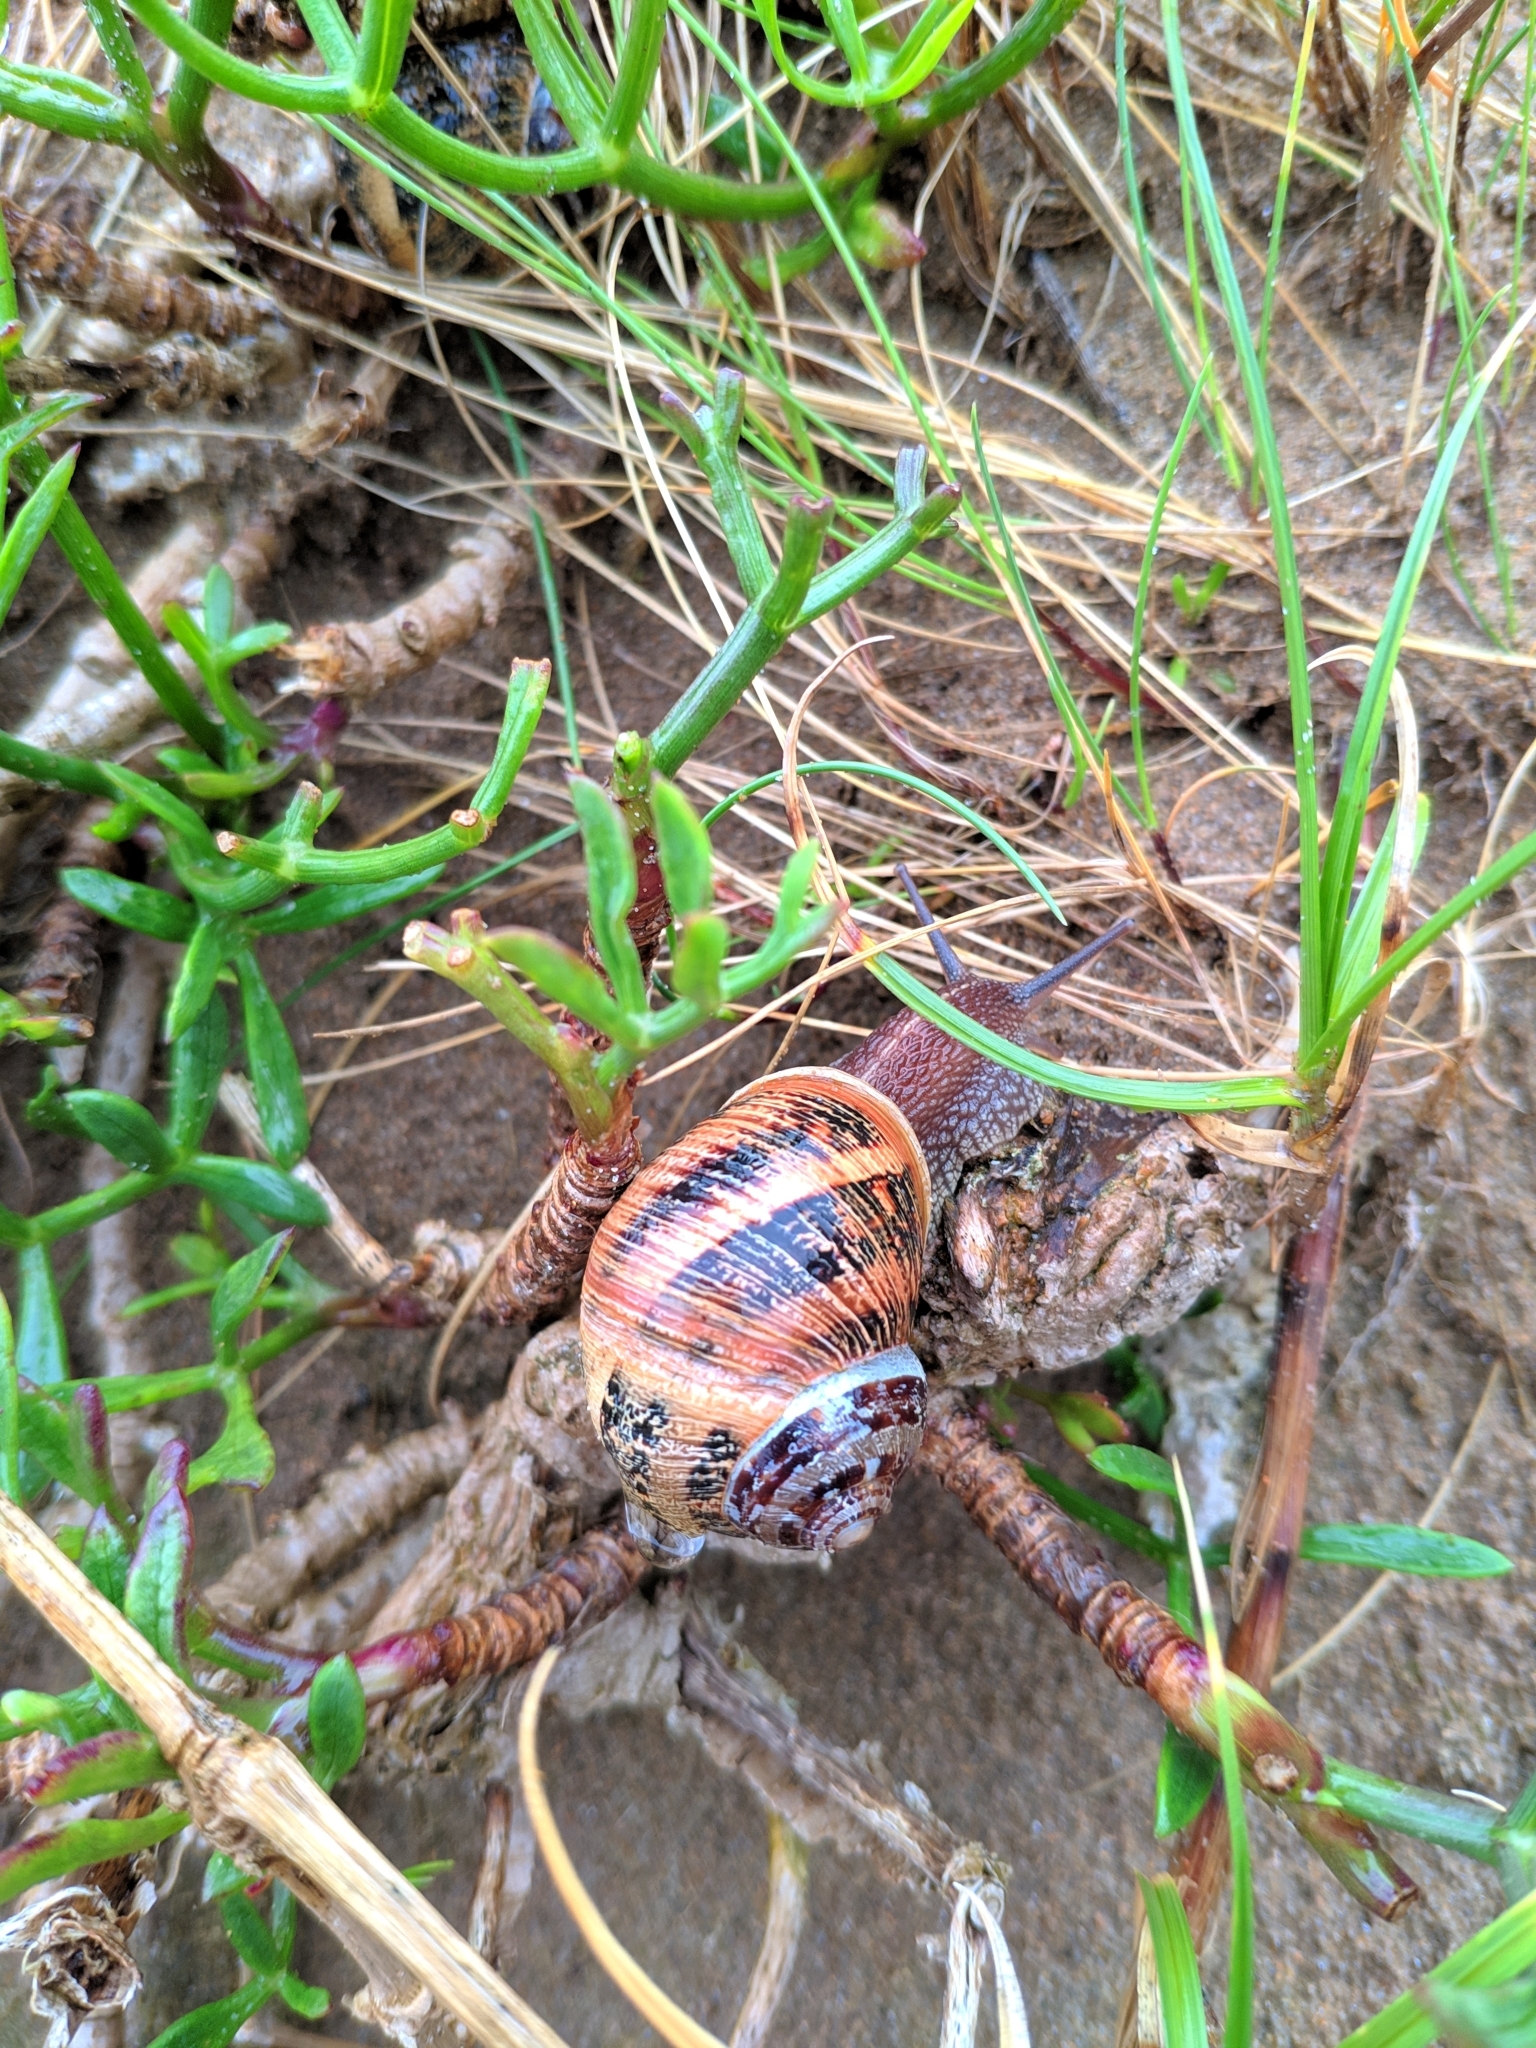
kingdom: Animalia
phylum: Mollusca
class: Gastropoda
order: Stylommatophora
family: Helicidae
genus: Cornu
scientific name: Cornu aspersum
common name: Brown garden snail
